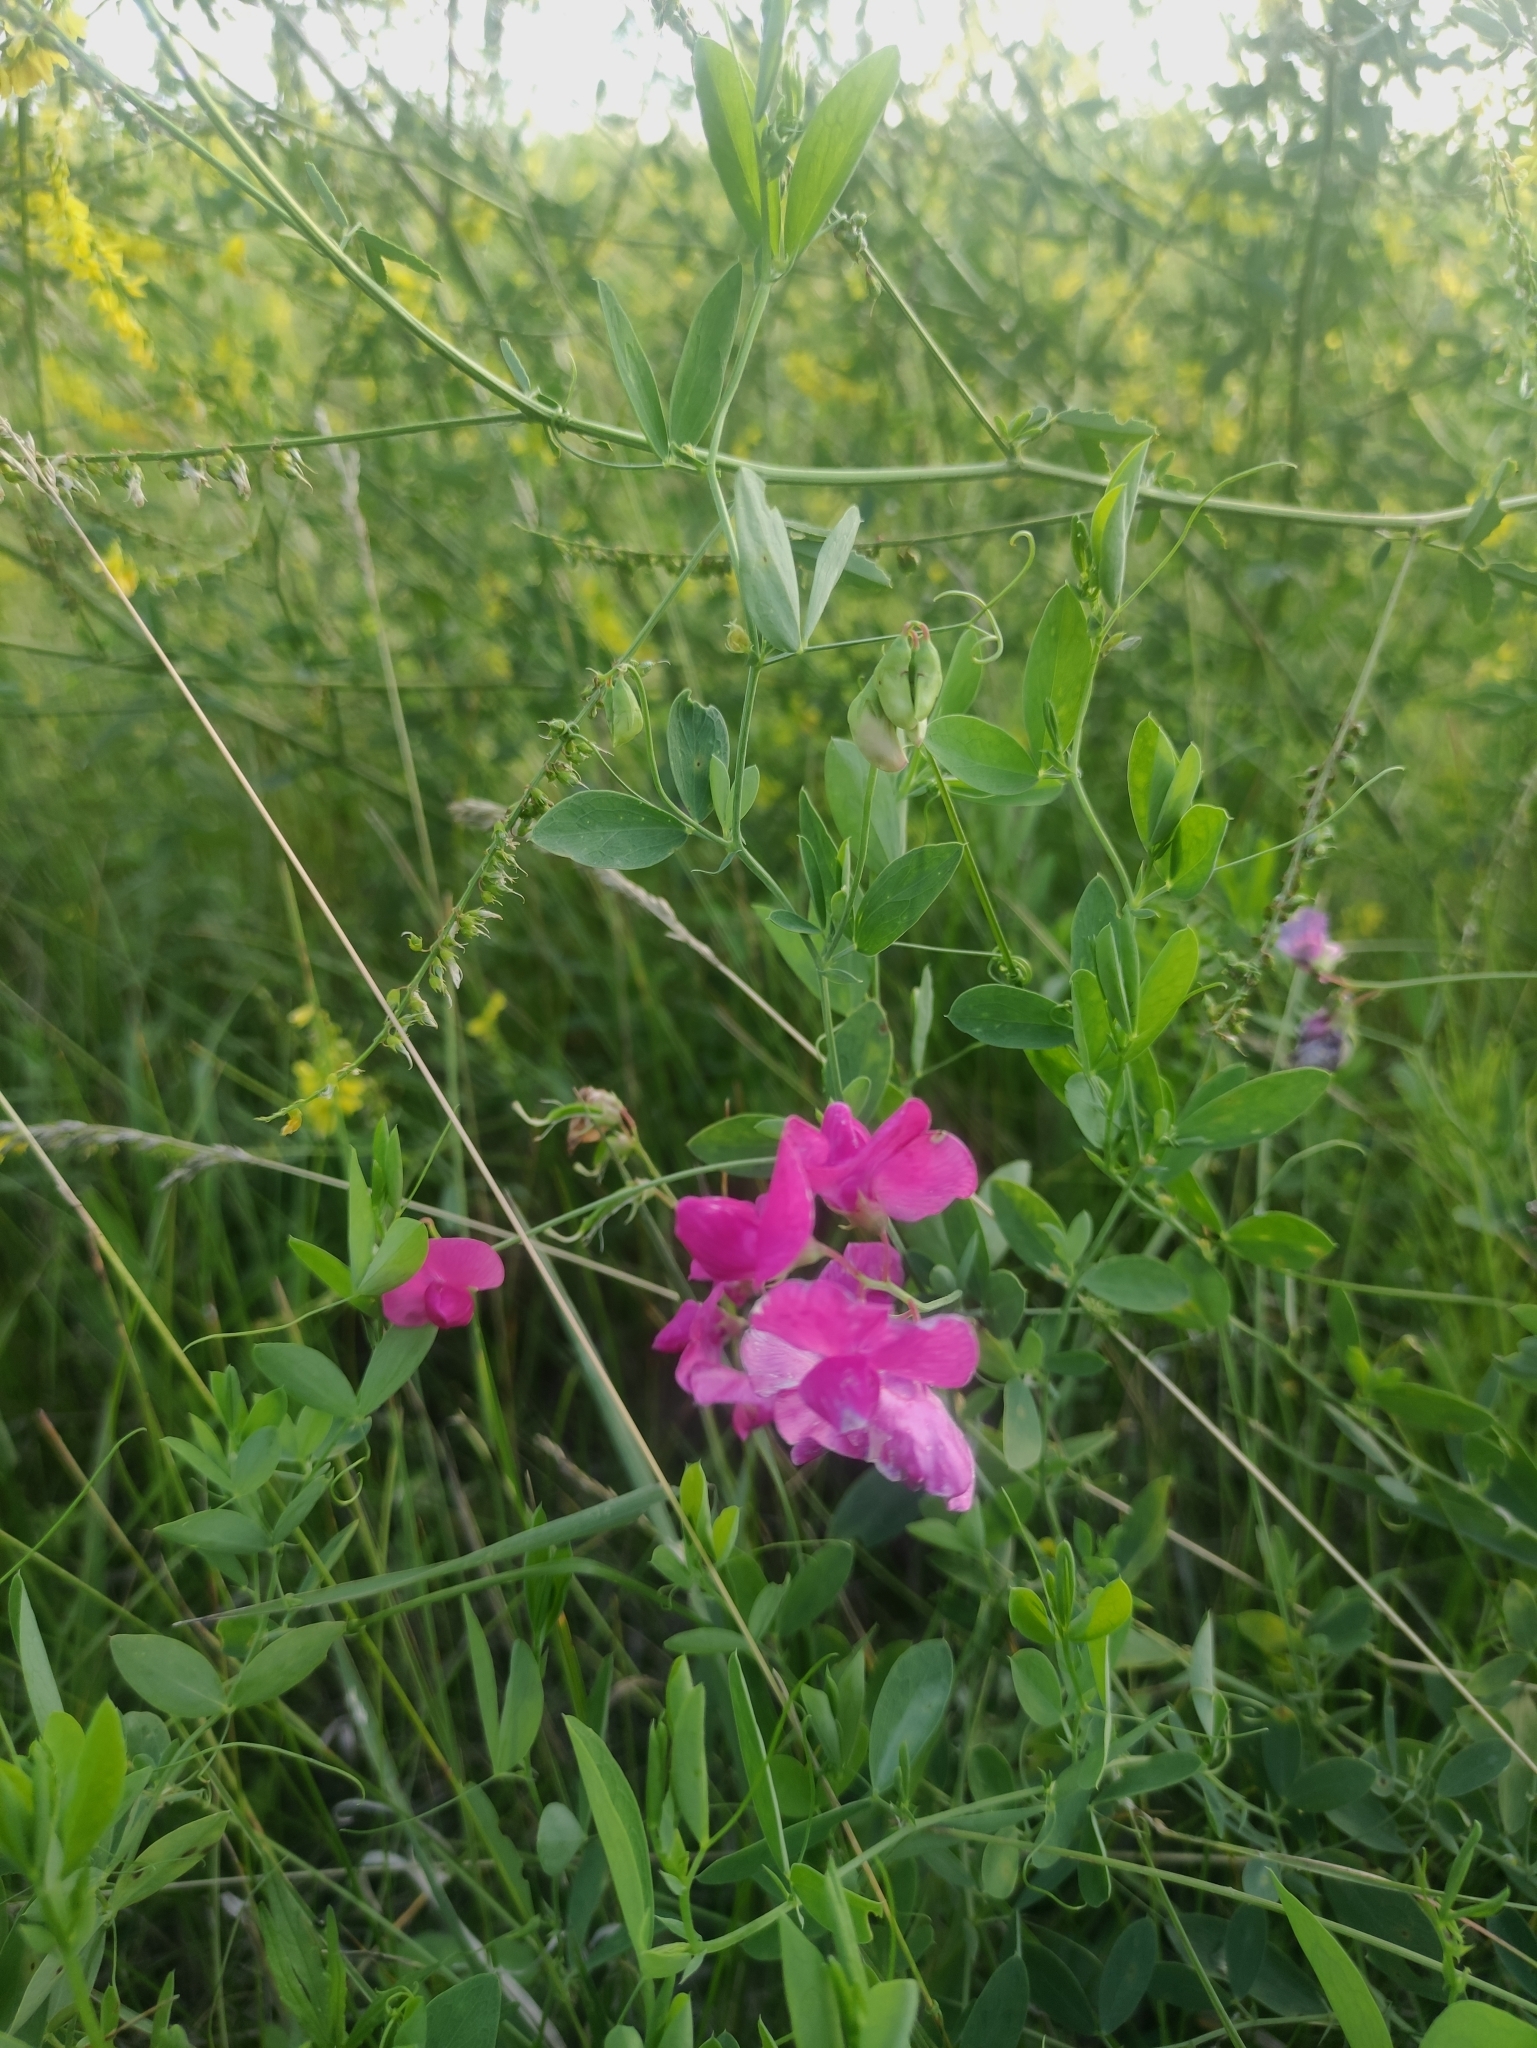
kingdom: Plantae
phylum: Tracheophyta
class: Magnoliopsida
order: Fabales
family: Fabaceae
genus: Lathyrus
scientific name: Lathyrus tuberosus
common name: Tuberous pea
